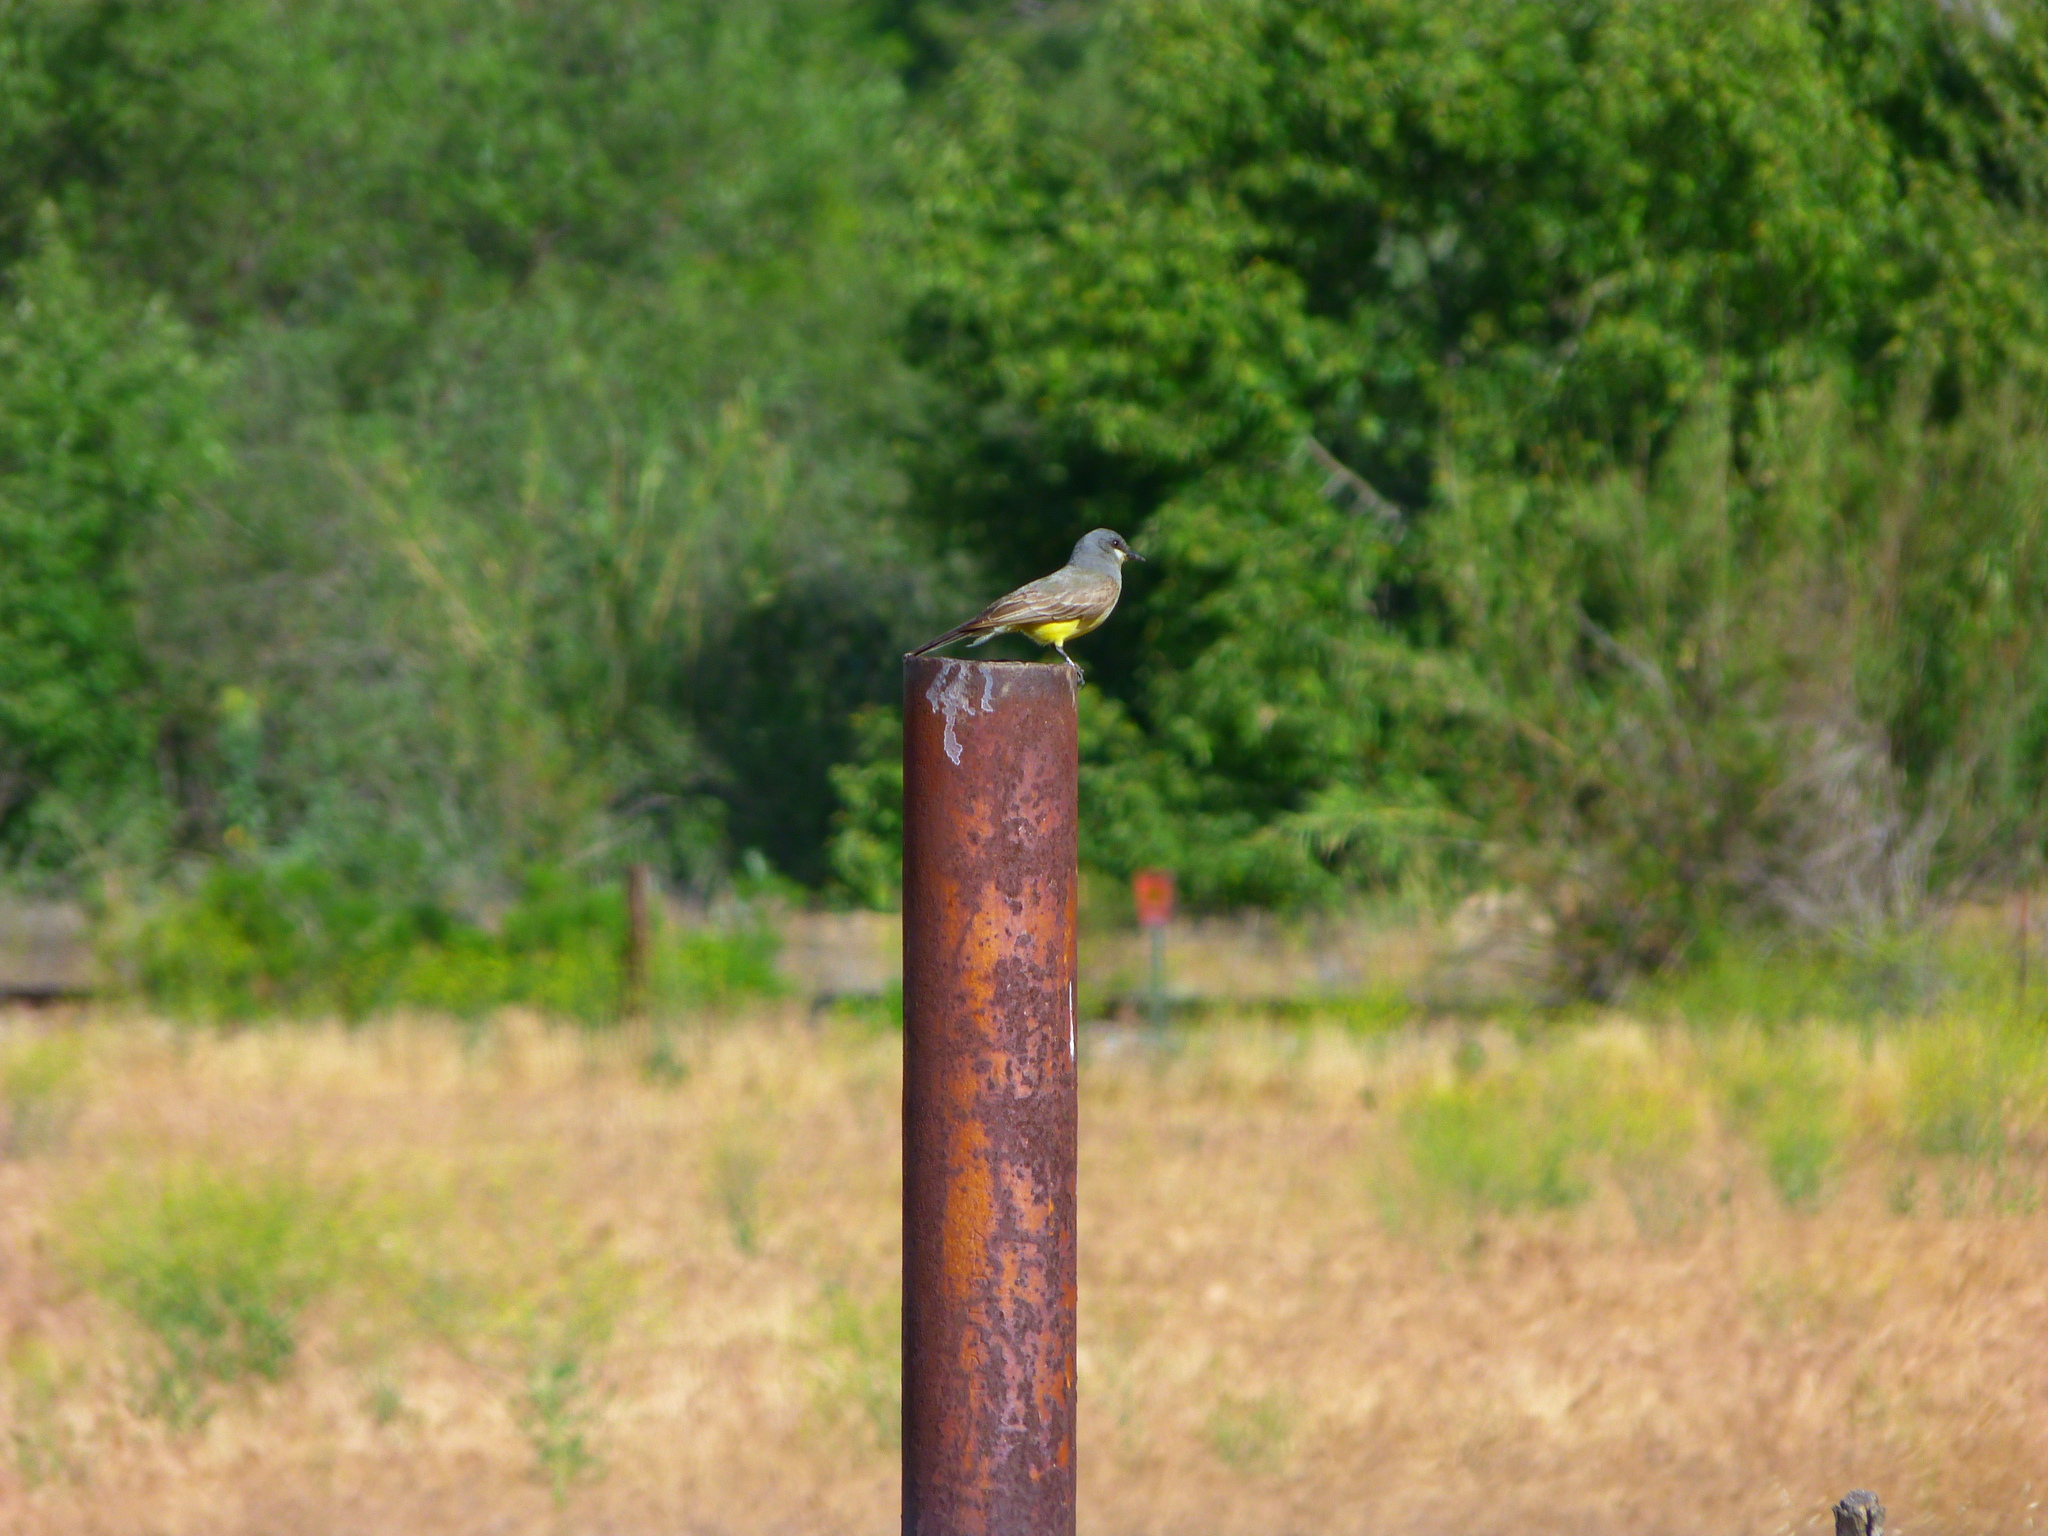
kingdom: Animalia
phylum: Chordata
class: Aves
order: Passeriformes
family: Tyrannidae
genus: Tyrannus
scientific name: Tyrannus vociferans
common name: Cassin's kingbird
